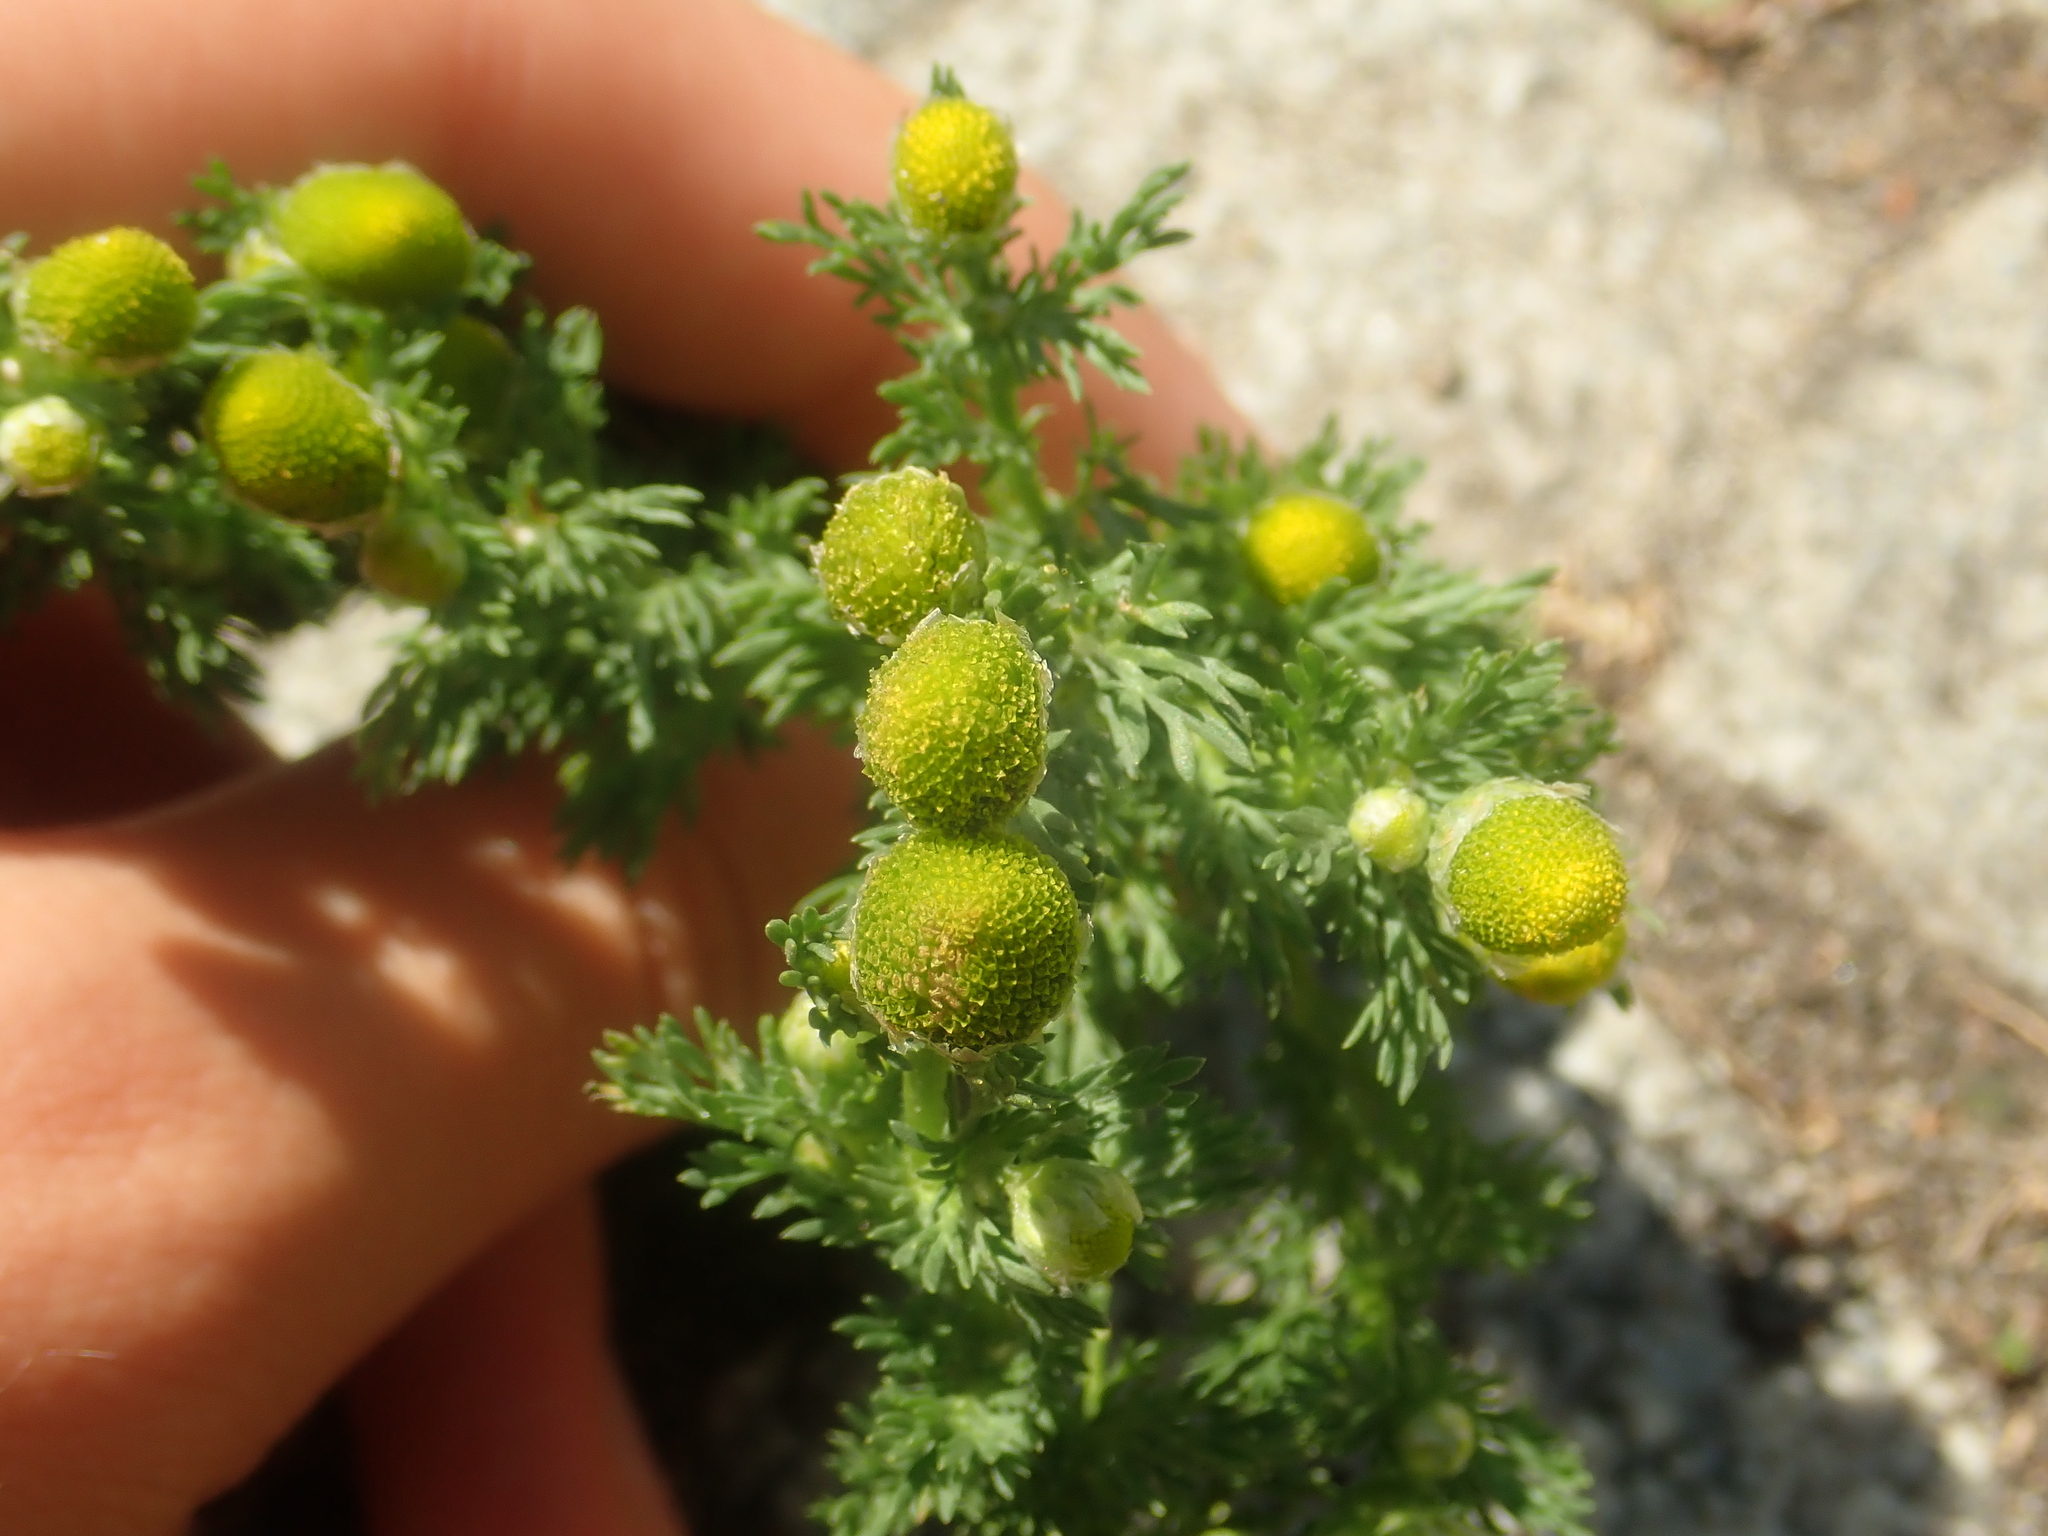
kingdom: Plantae
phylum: Tracheophyta
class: Magnoliopsida
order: Asterales
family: Asteraceae
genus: Matricaria
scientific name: Matricaria discoidea
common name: Disc mayweed
